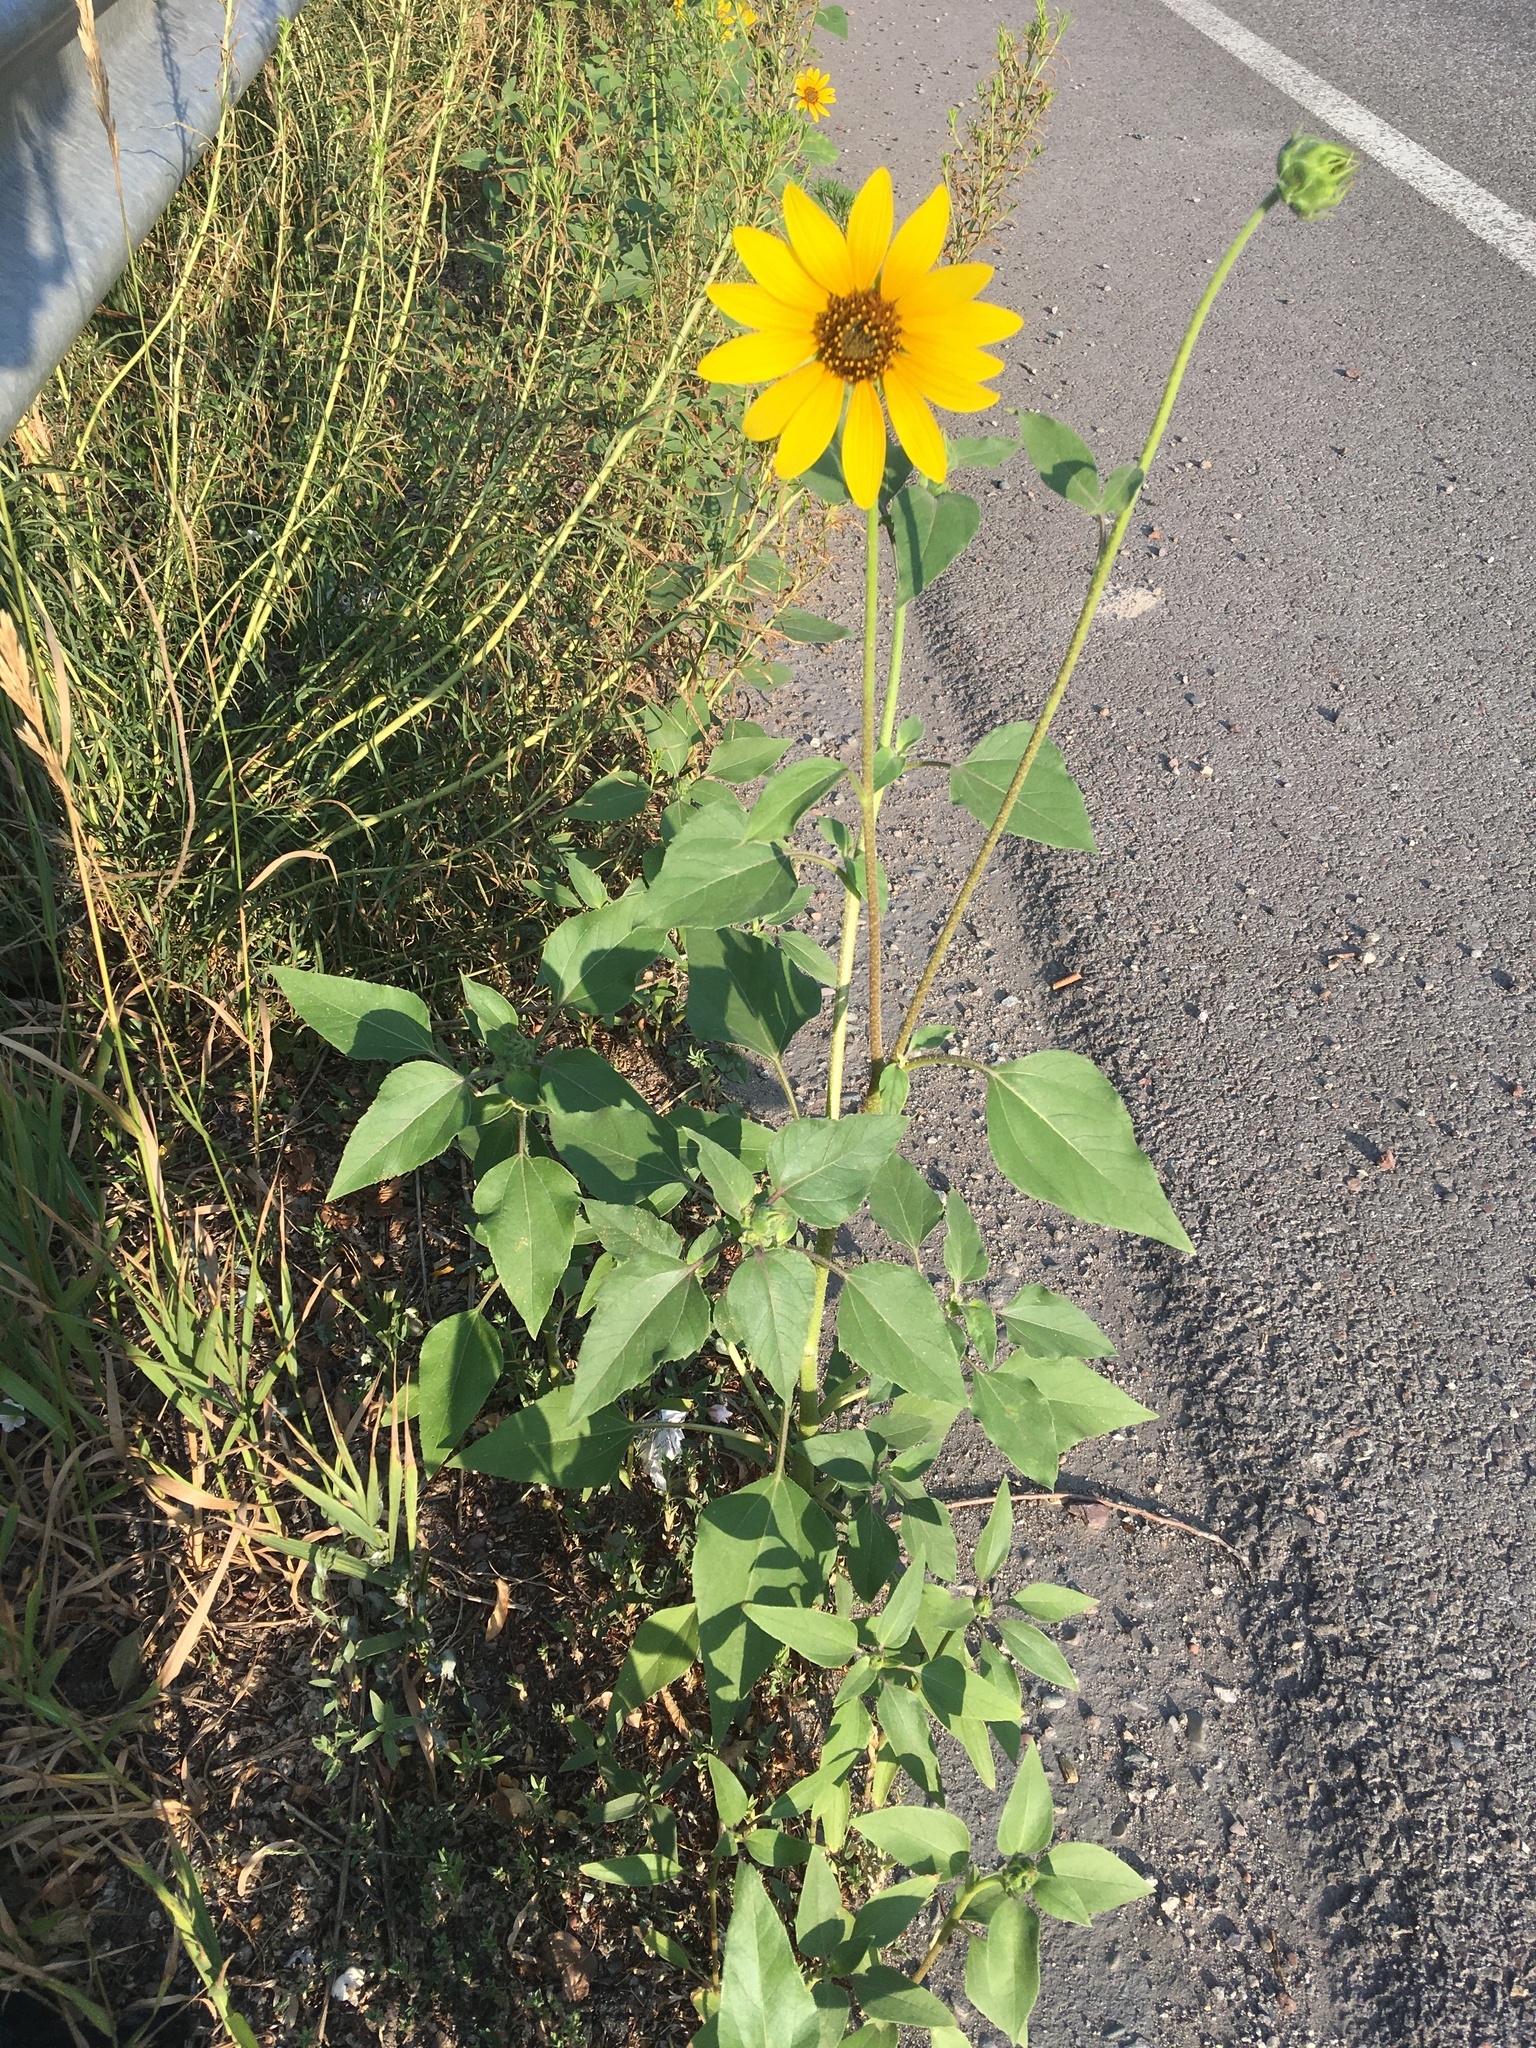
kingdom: Plantae
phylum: Tracheophyta
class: Magnoliopsida
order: Asterales
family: Asteraceae
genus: Helianthus
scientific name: Helianthus annuus
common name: Sunflower
